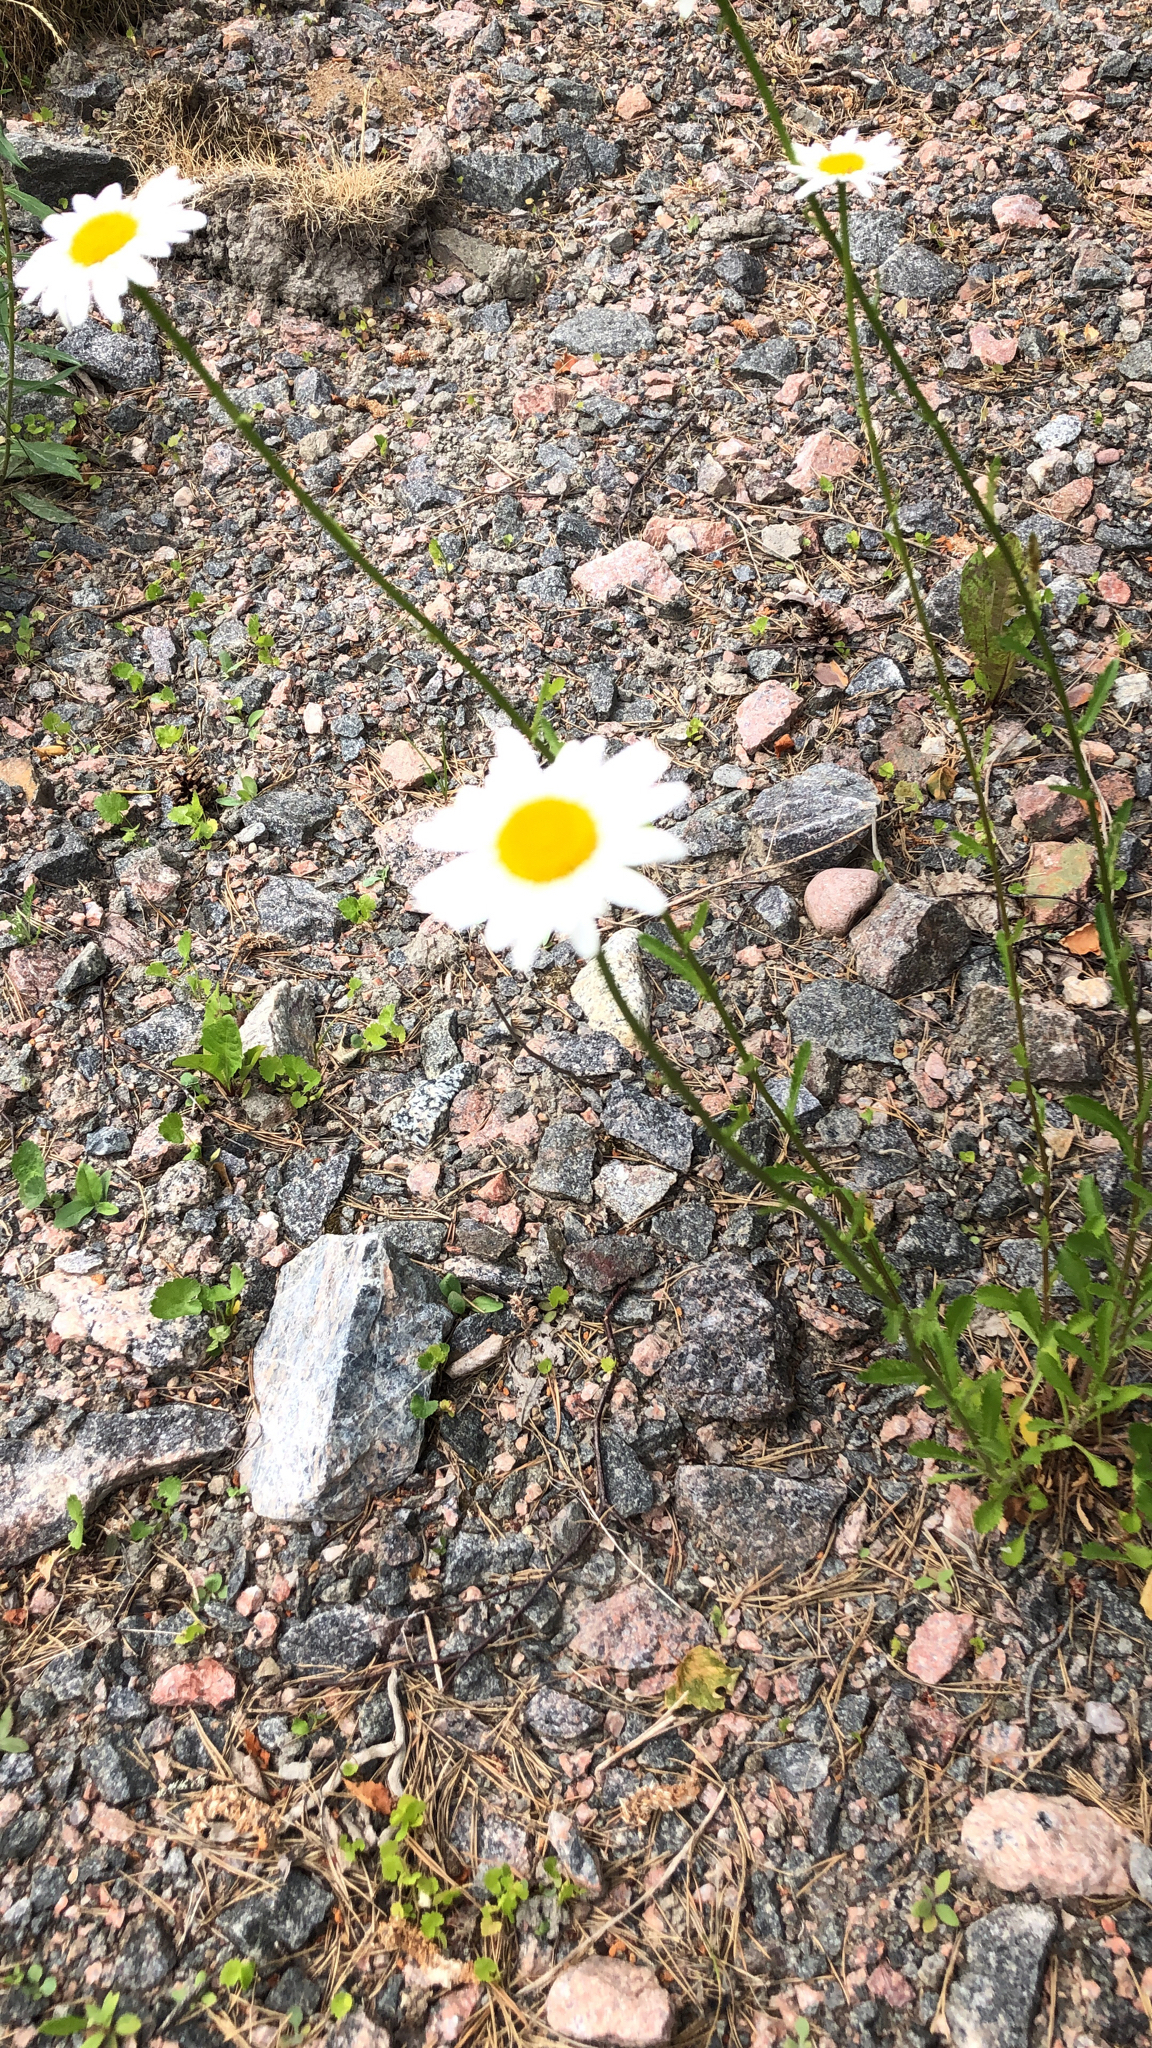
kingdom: Plantae
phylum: Tracheophyta
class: Magnoliopsida
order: Asterales
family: Asteraceae
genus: Leucanthemum
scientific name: Leucanthemum vulgare
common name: Oxeye daisy
